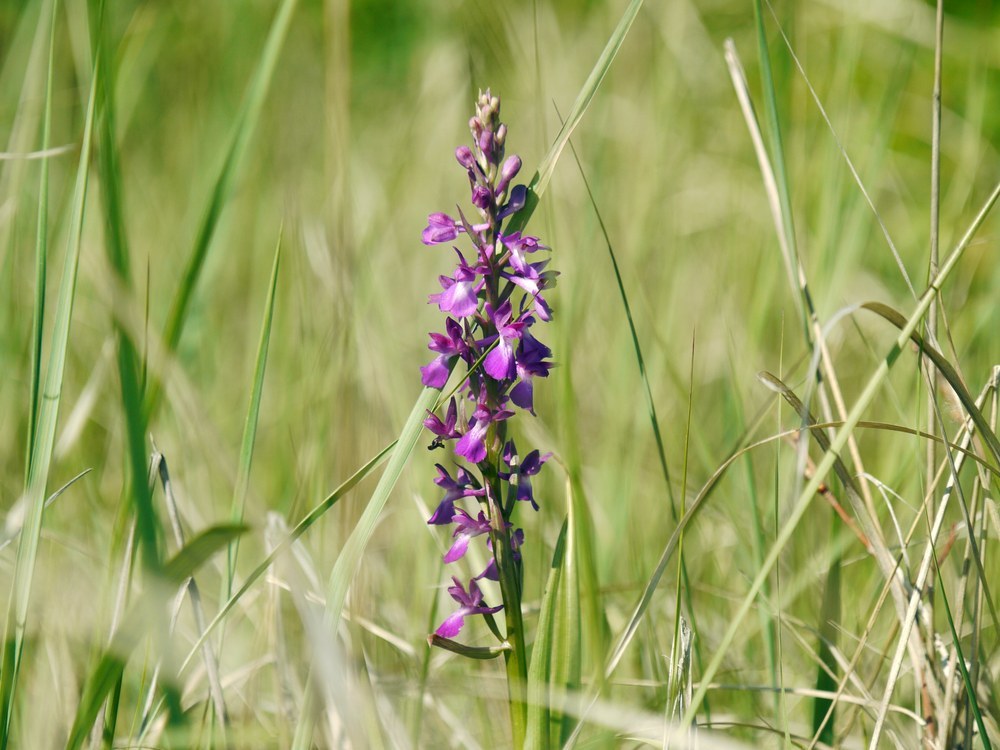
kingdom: Plantae
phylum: Tracheophyta
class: Liliopsida
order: Asparagales
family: Orchidaceae
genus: Anacamptis
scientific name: Anacamptis palustris
